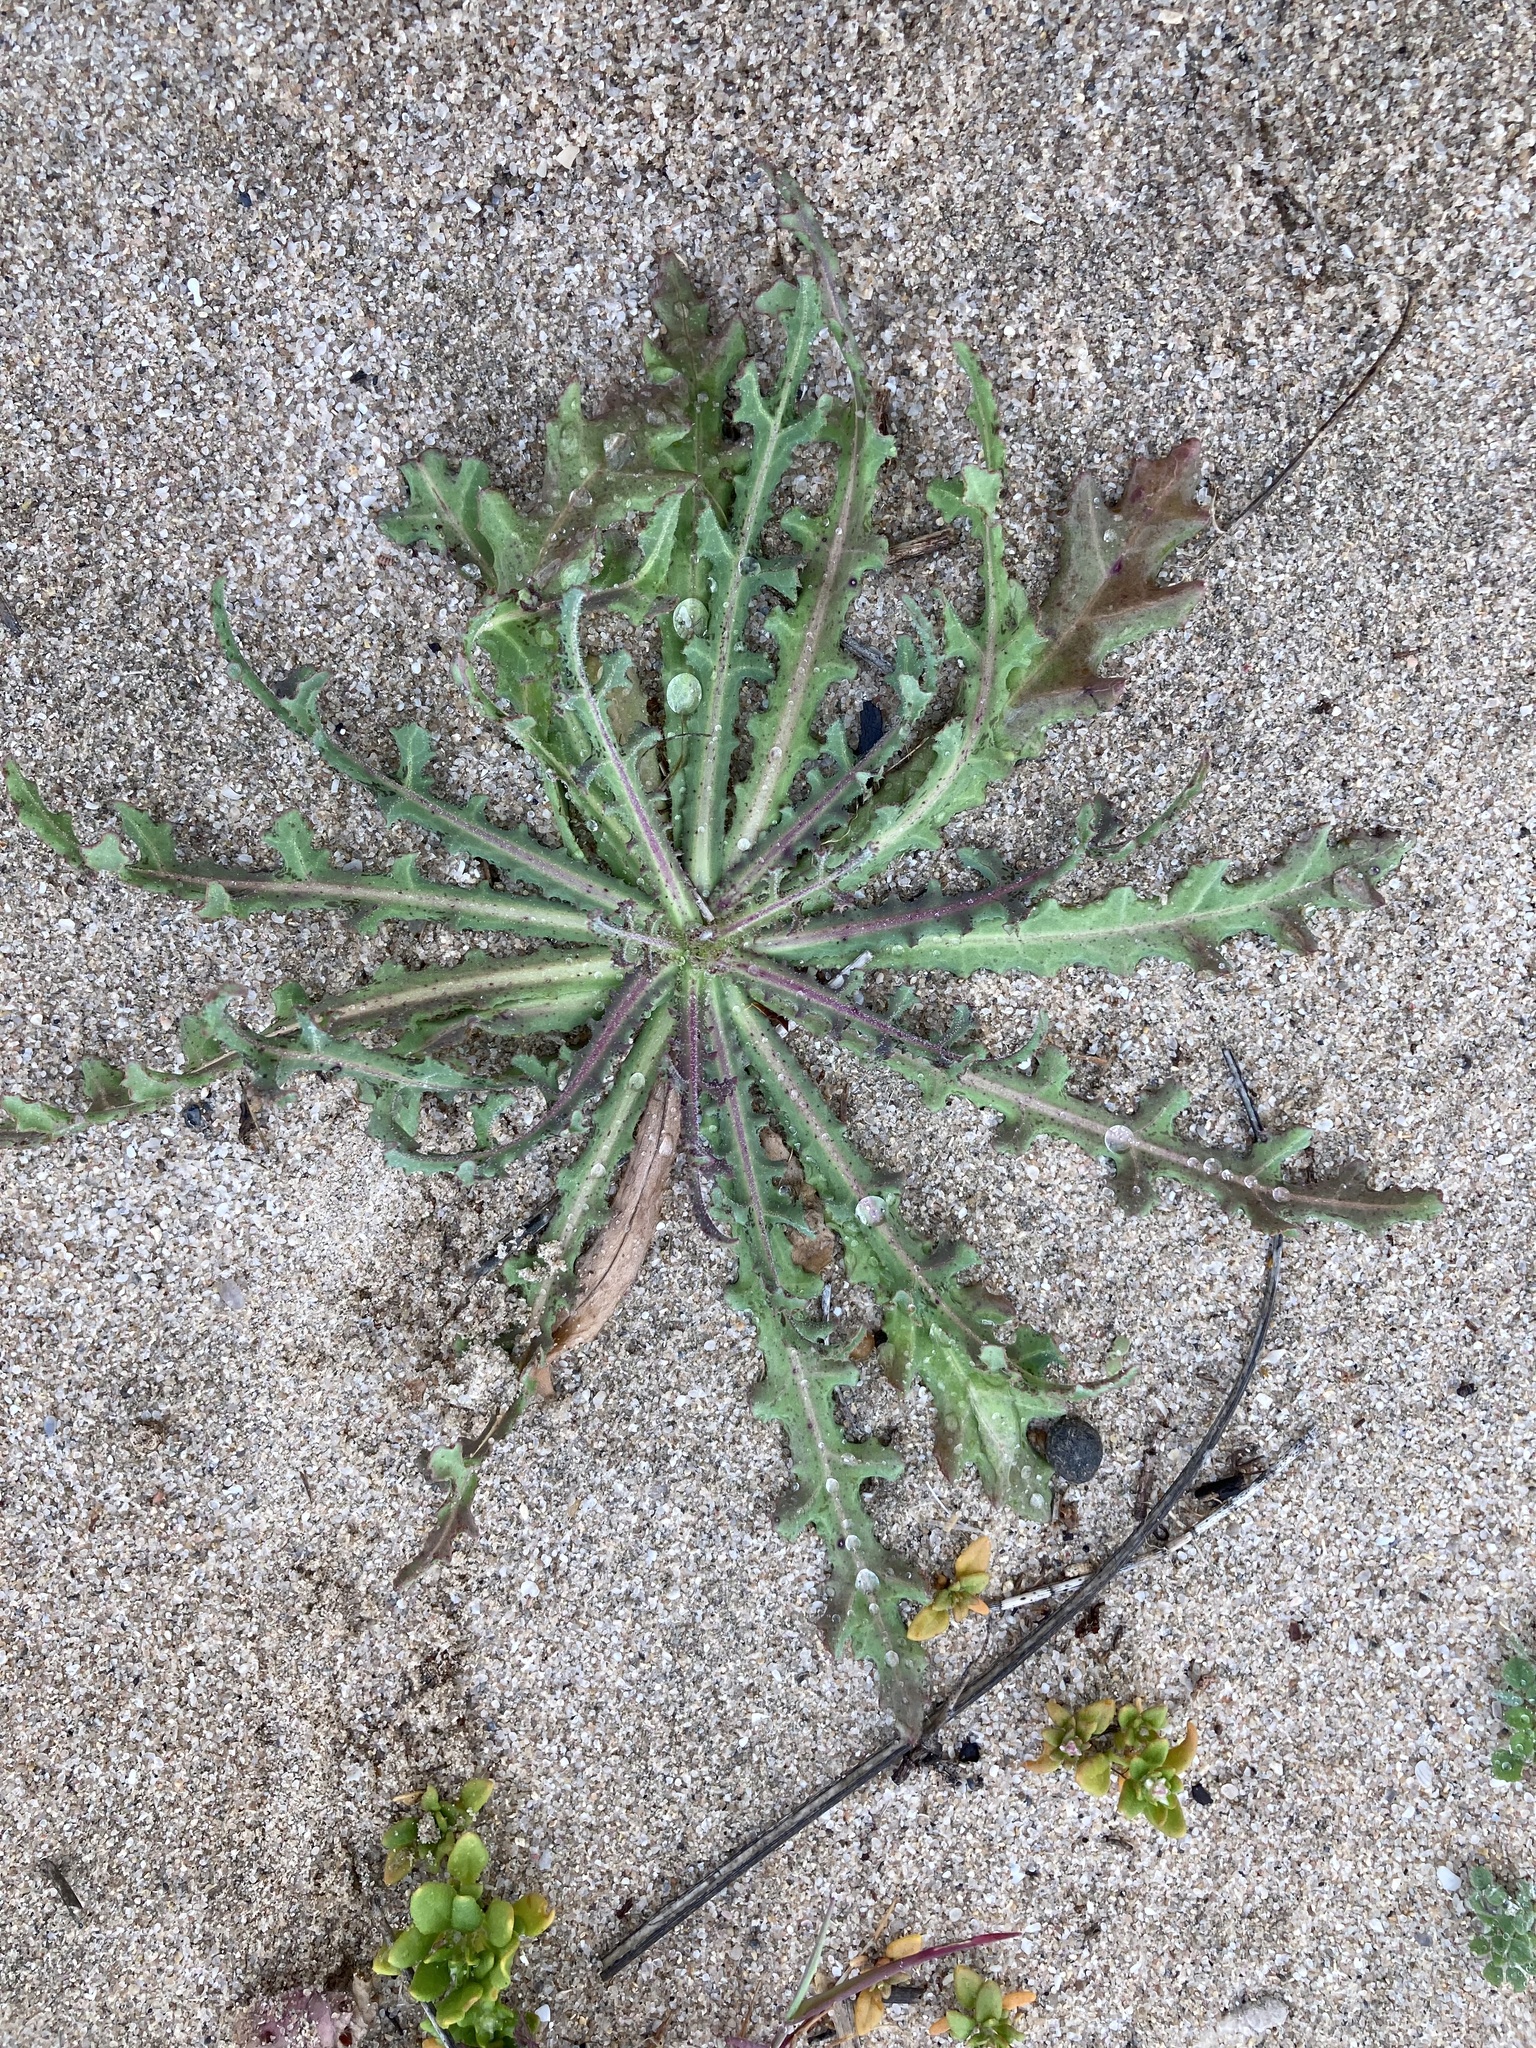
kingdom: Plantae
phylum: Tracheophyta
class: Magnoliopsida
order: Asterales
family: Asteraceae
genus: Reichardia
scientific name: Reichardia tingitana
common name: Reichardia
